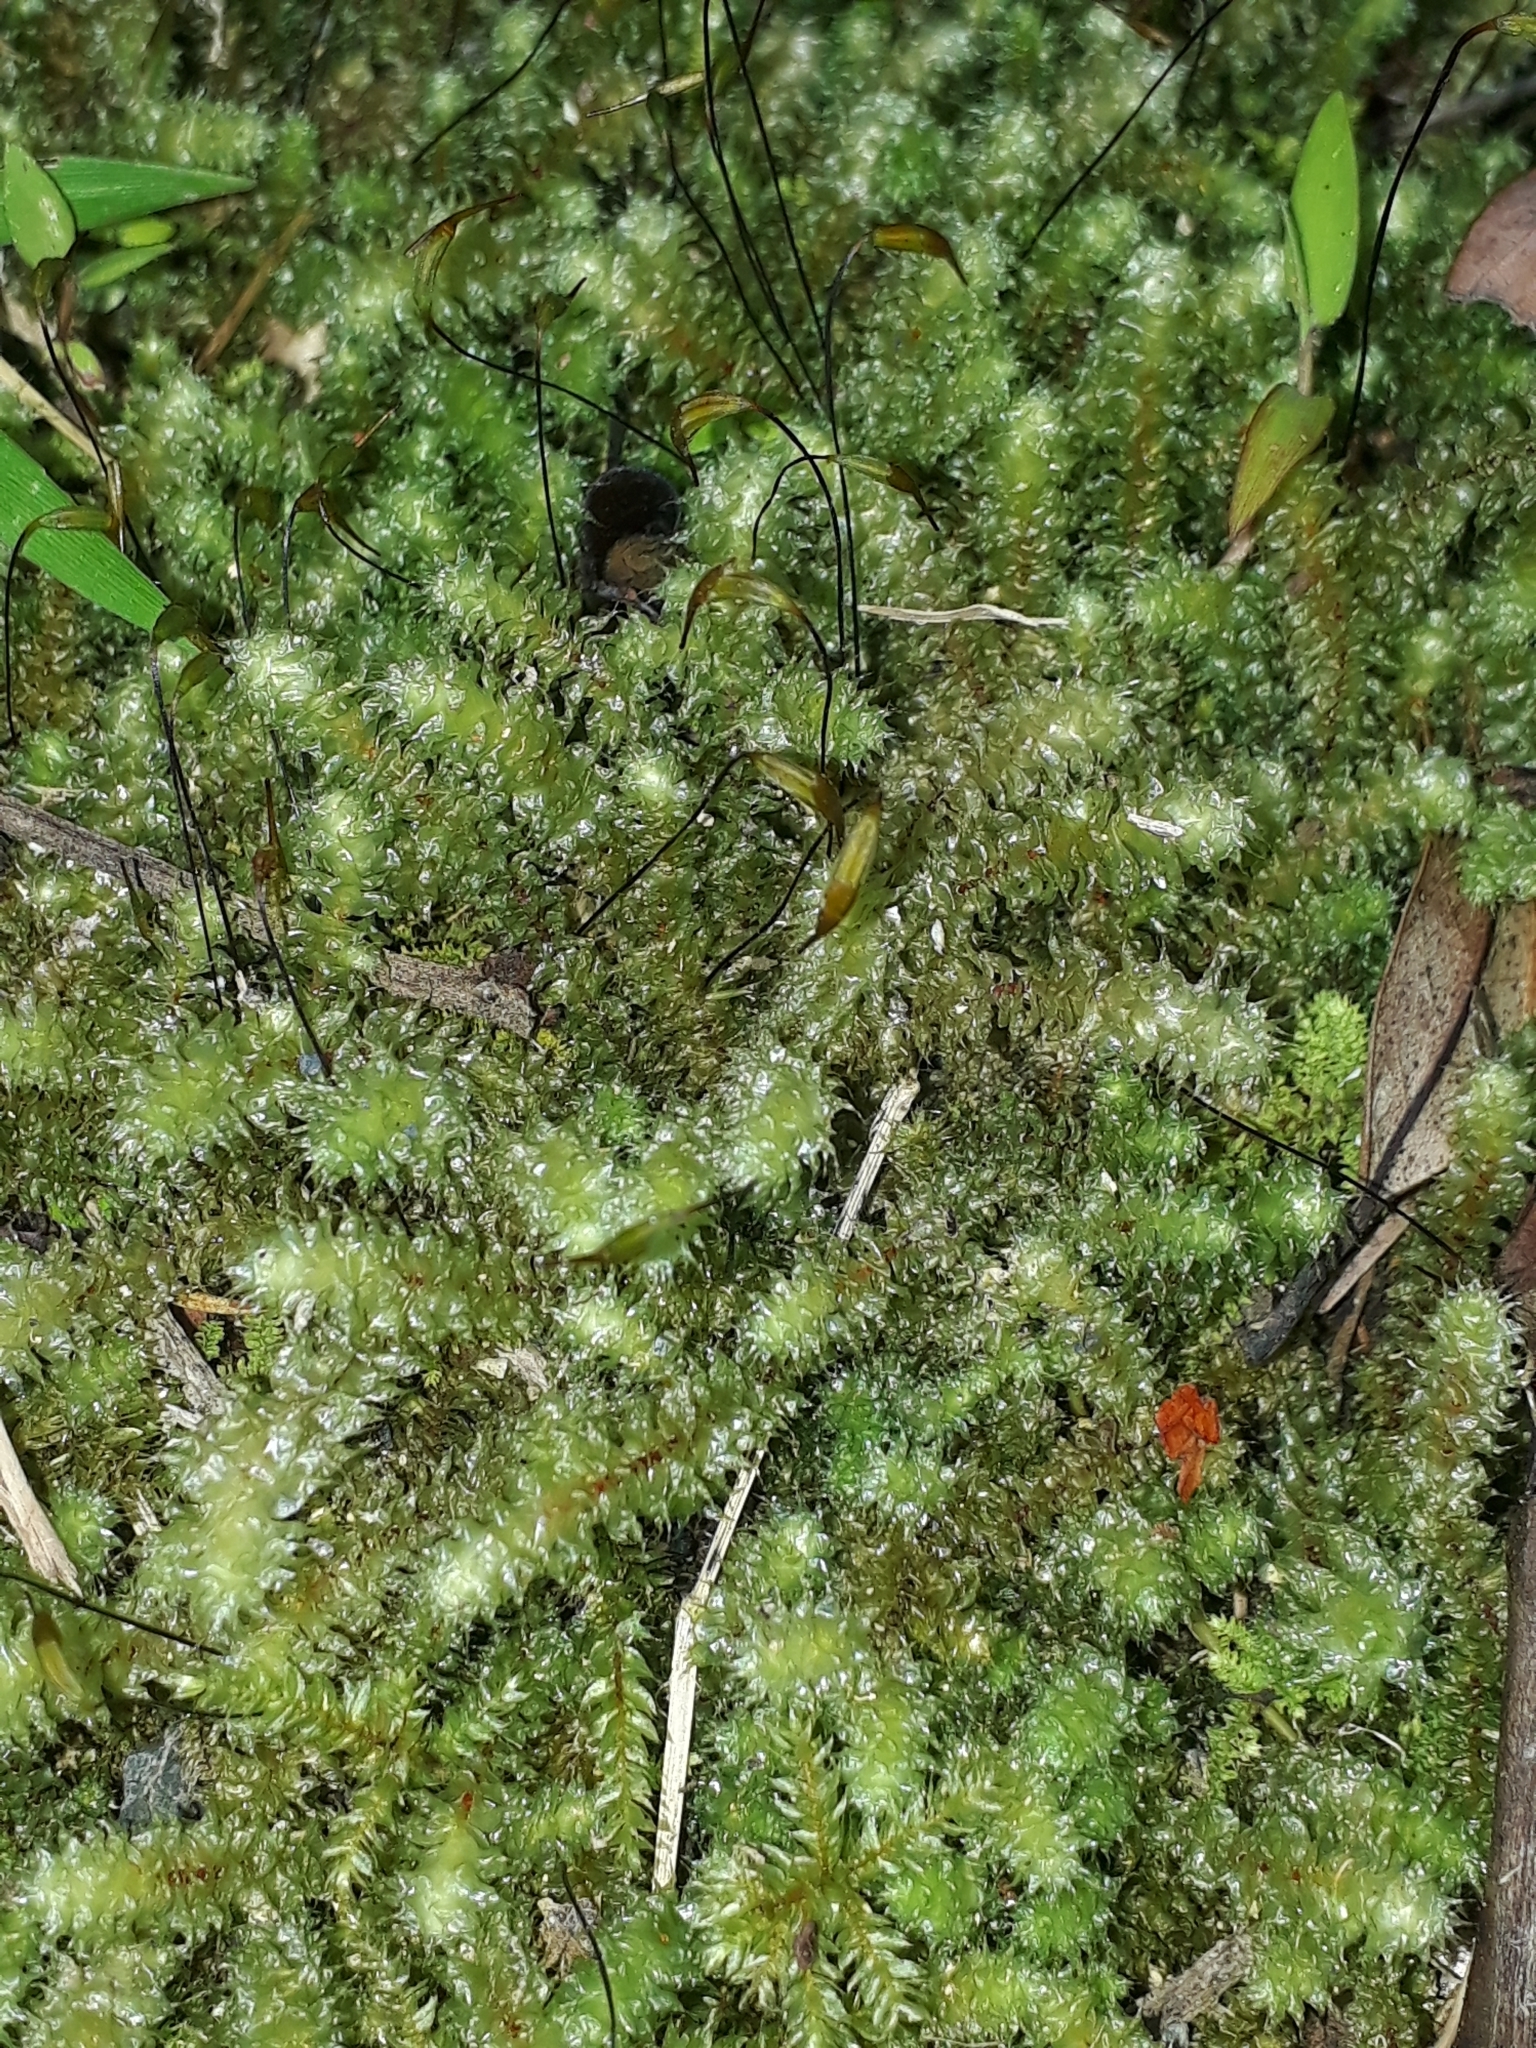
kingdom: Plantae
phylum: Bryophyta
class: Bryopsida
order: Ptychomniales
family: Ptychomniaceae
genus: Ptychomnion
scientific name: Ptychomnion aciculare
